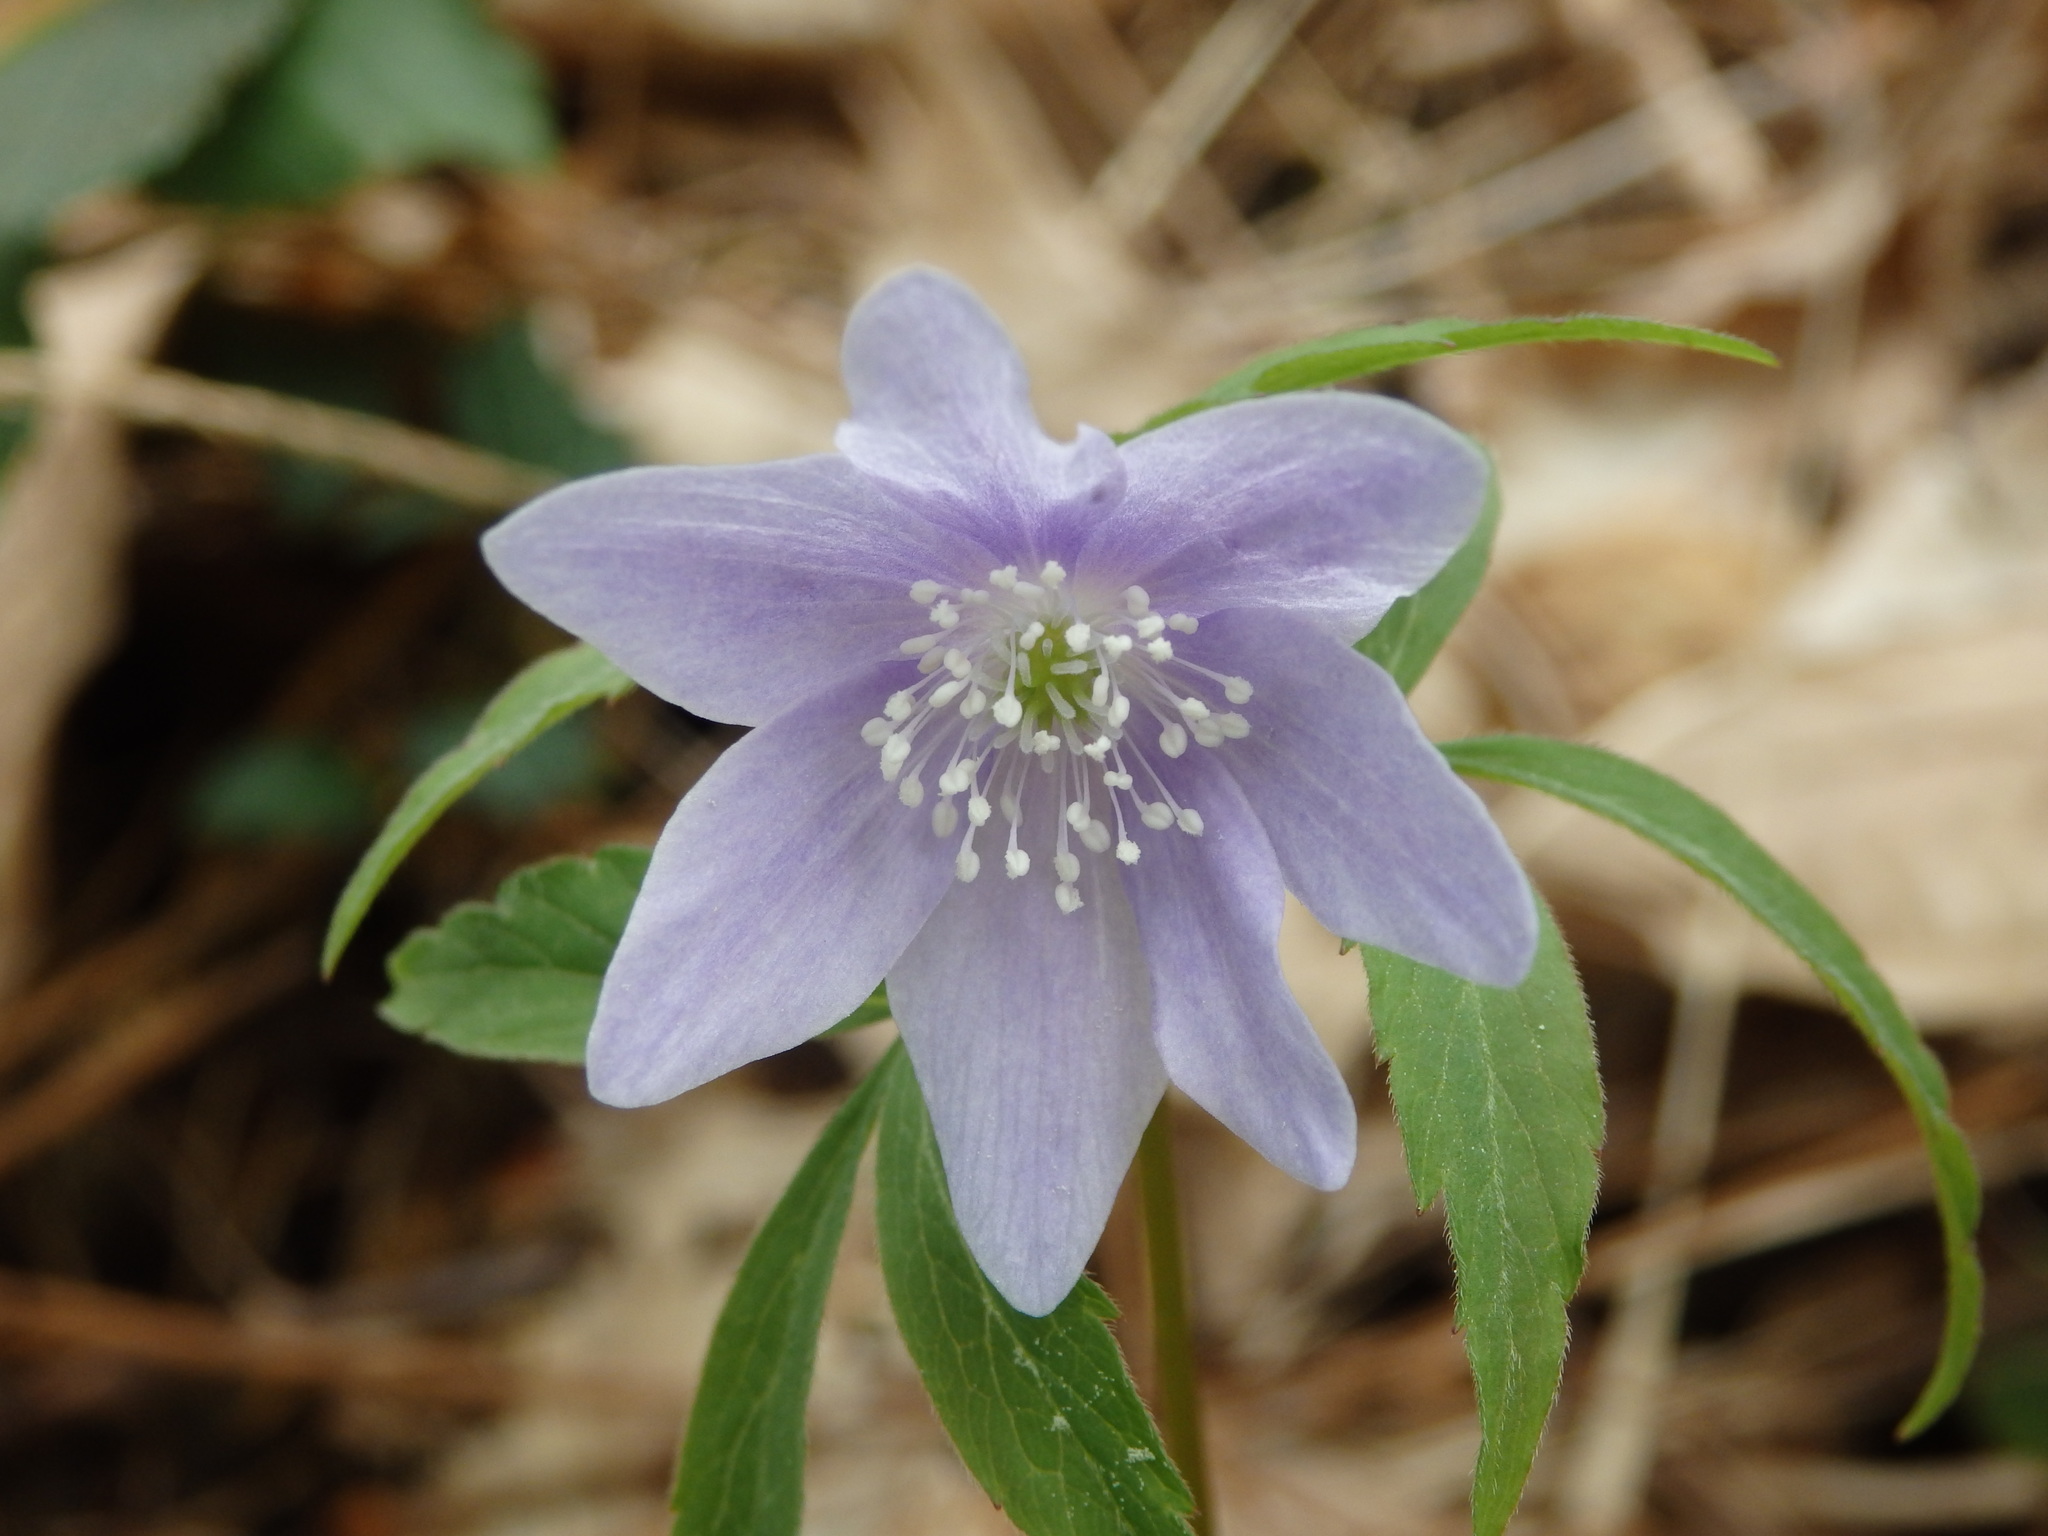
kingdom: Plantae
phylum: Tracheophyta
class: Magnoliopsida
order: Ranunculales
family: Ranunculaceae
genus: Anemone
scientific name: Anemone trifolia
